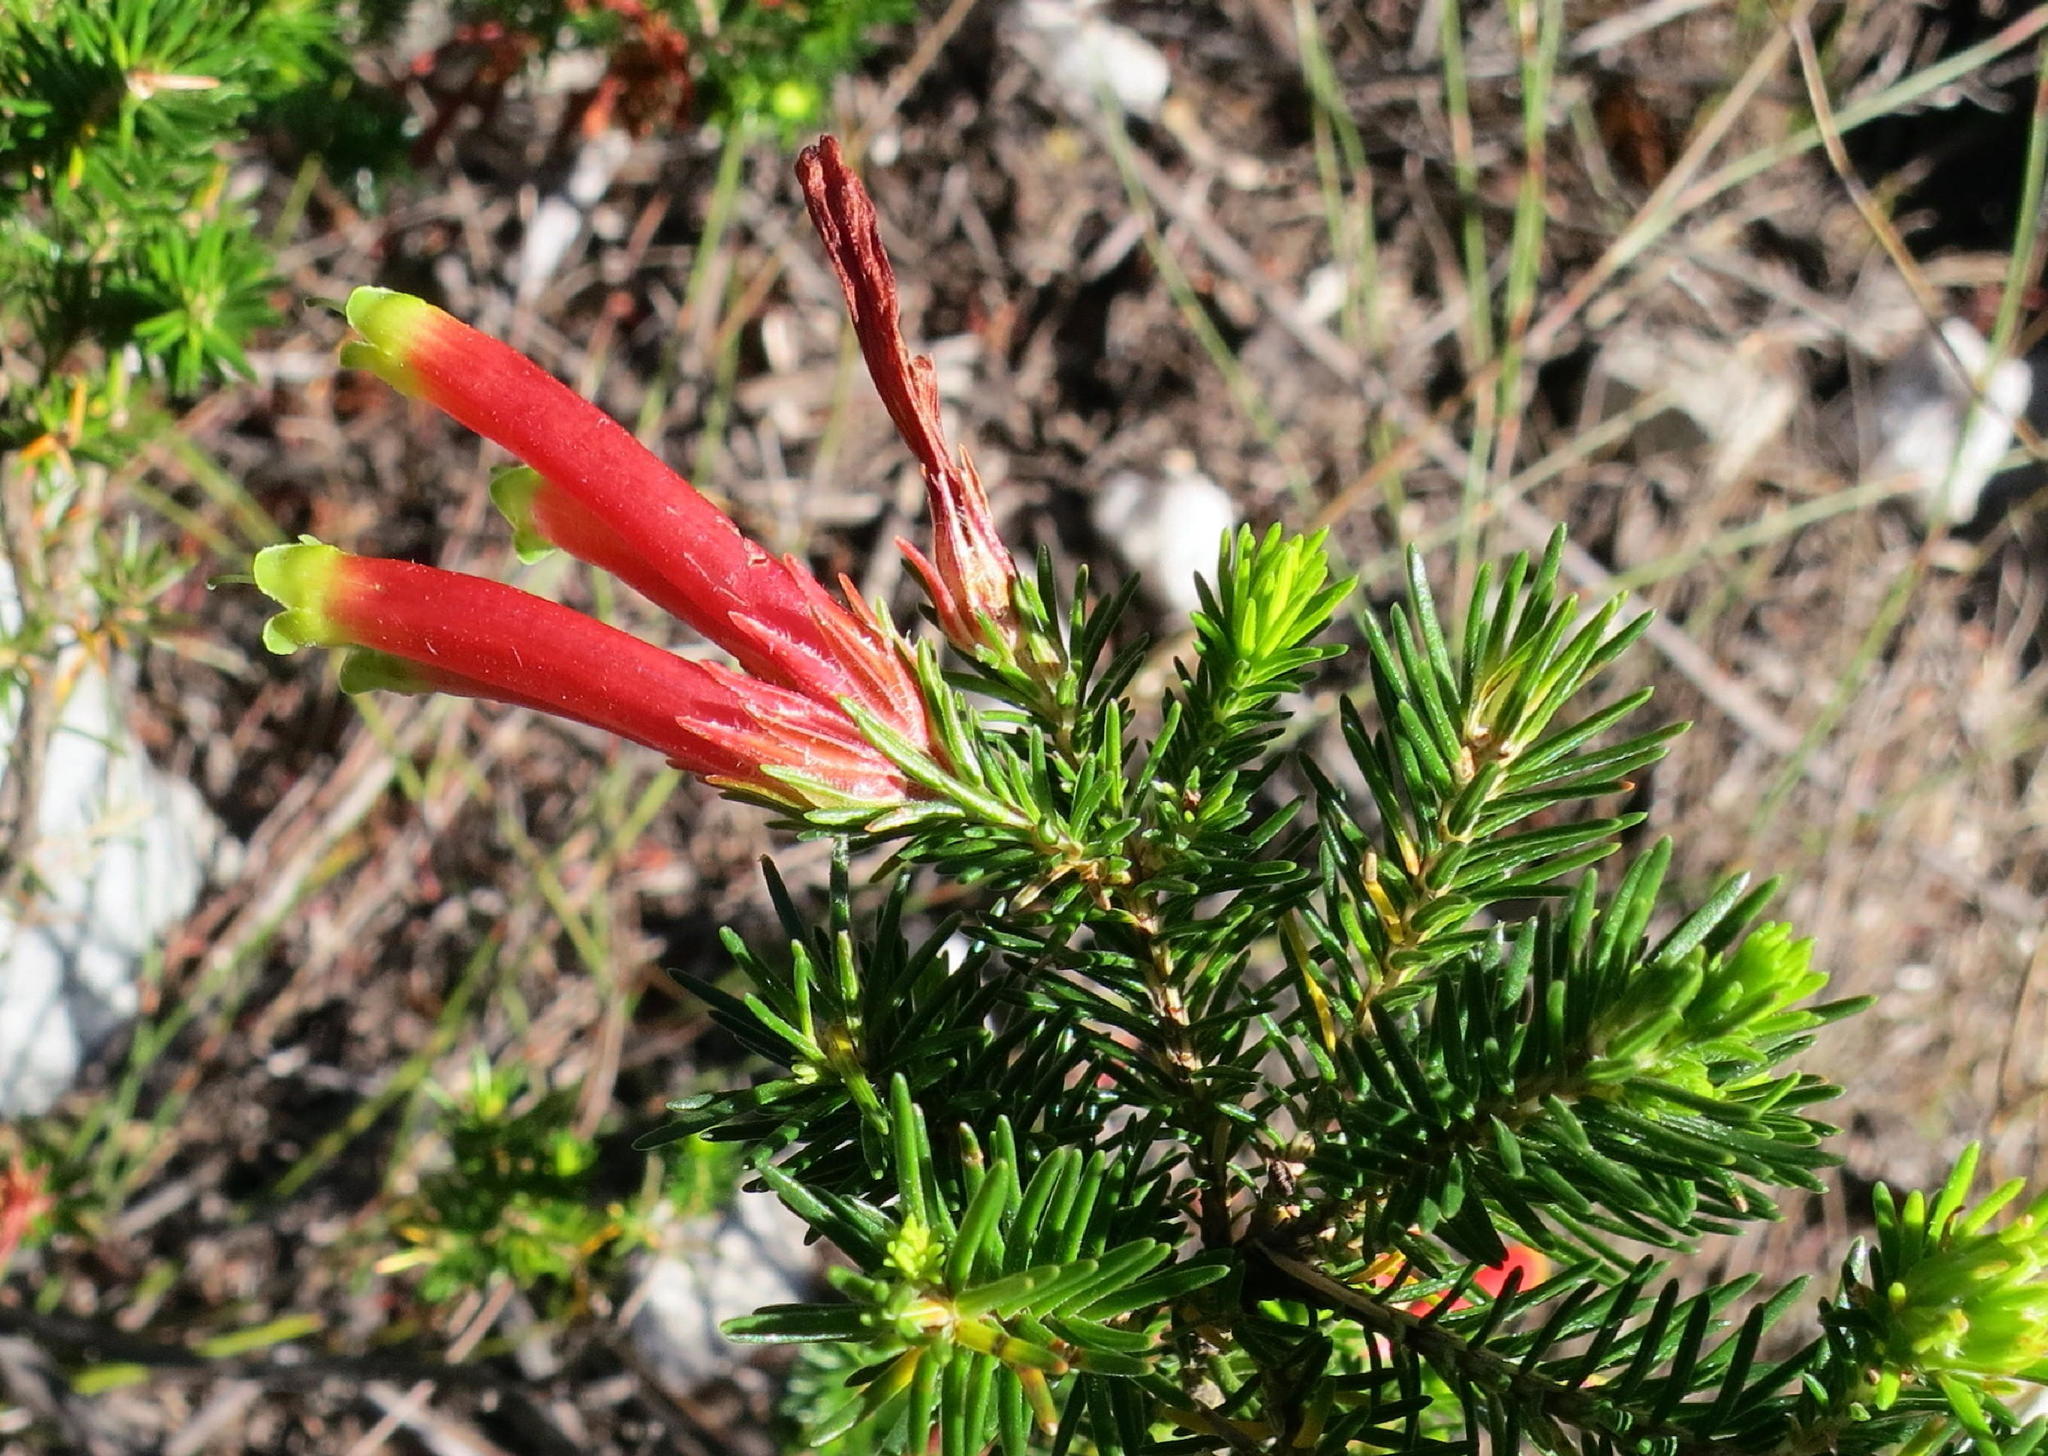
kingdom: Plantae
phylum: Tracheophyta
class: Magnoliopsida
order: Ericales
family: Ericaceae
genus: Erica
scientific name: Erica unicolor
